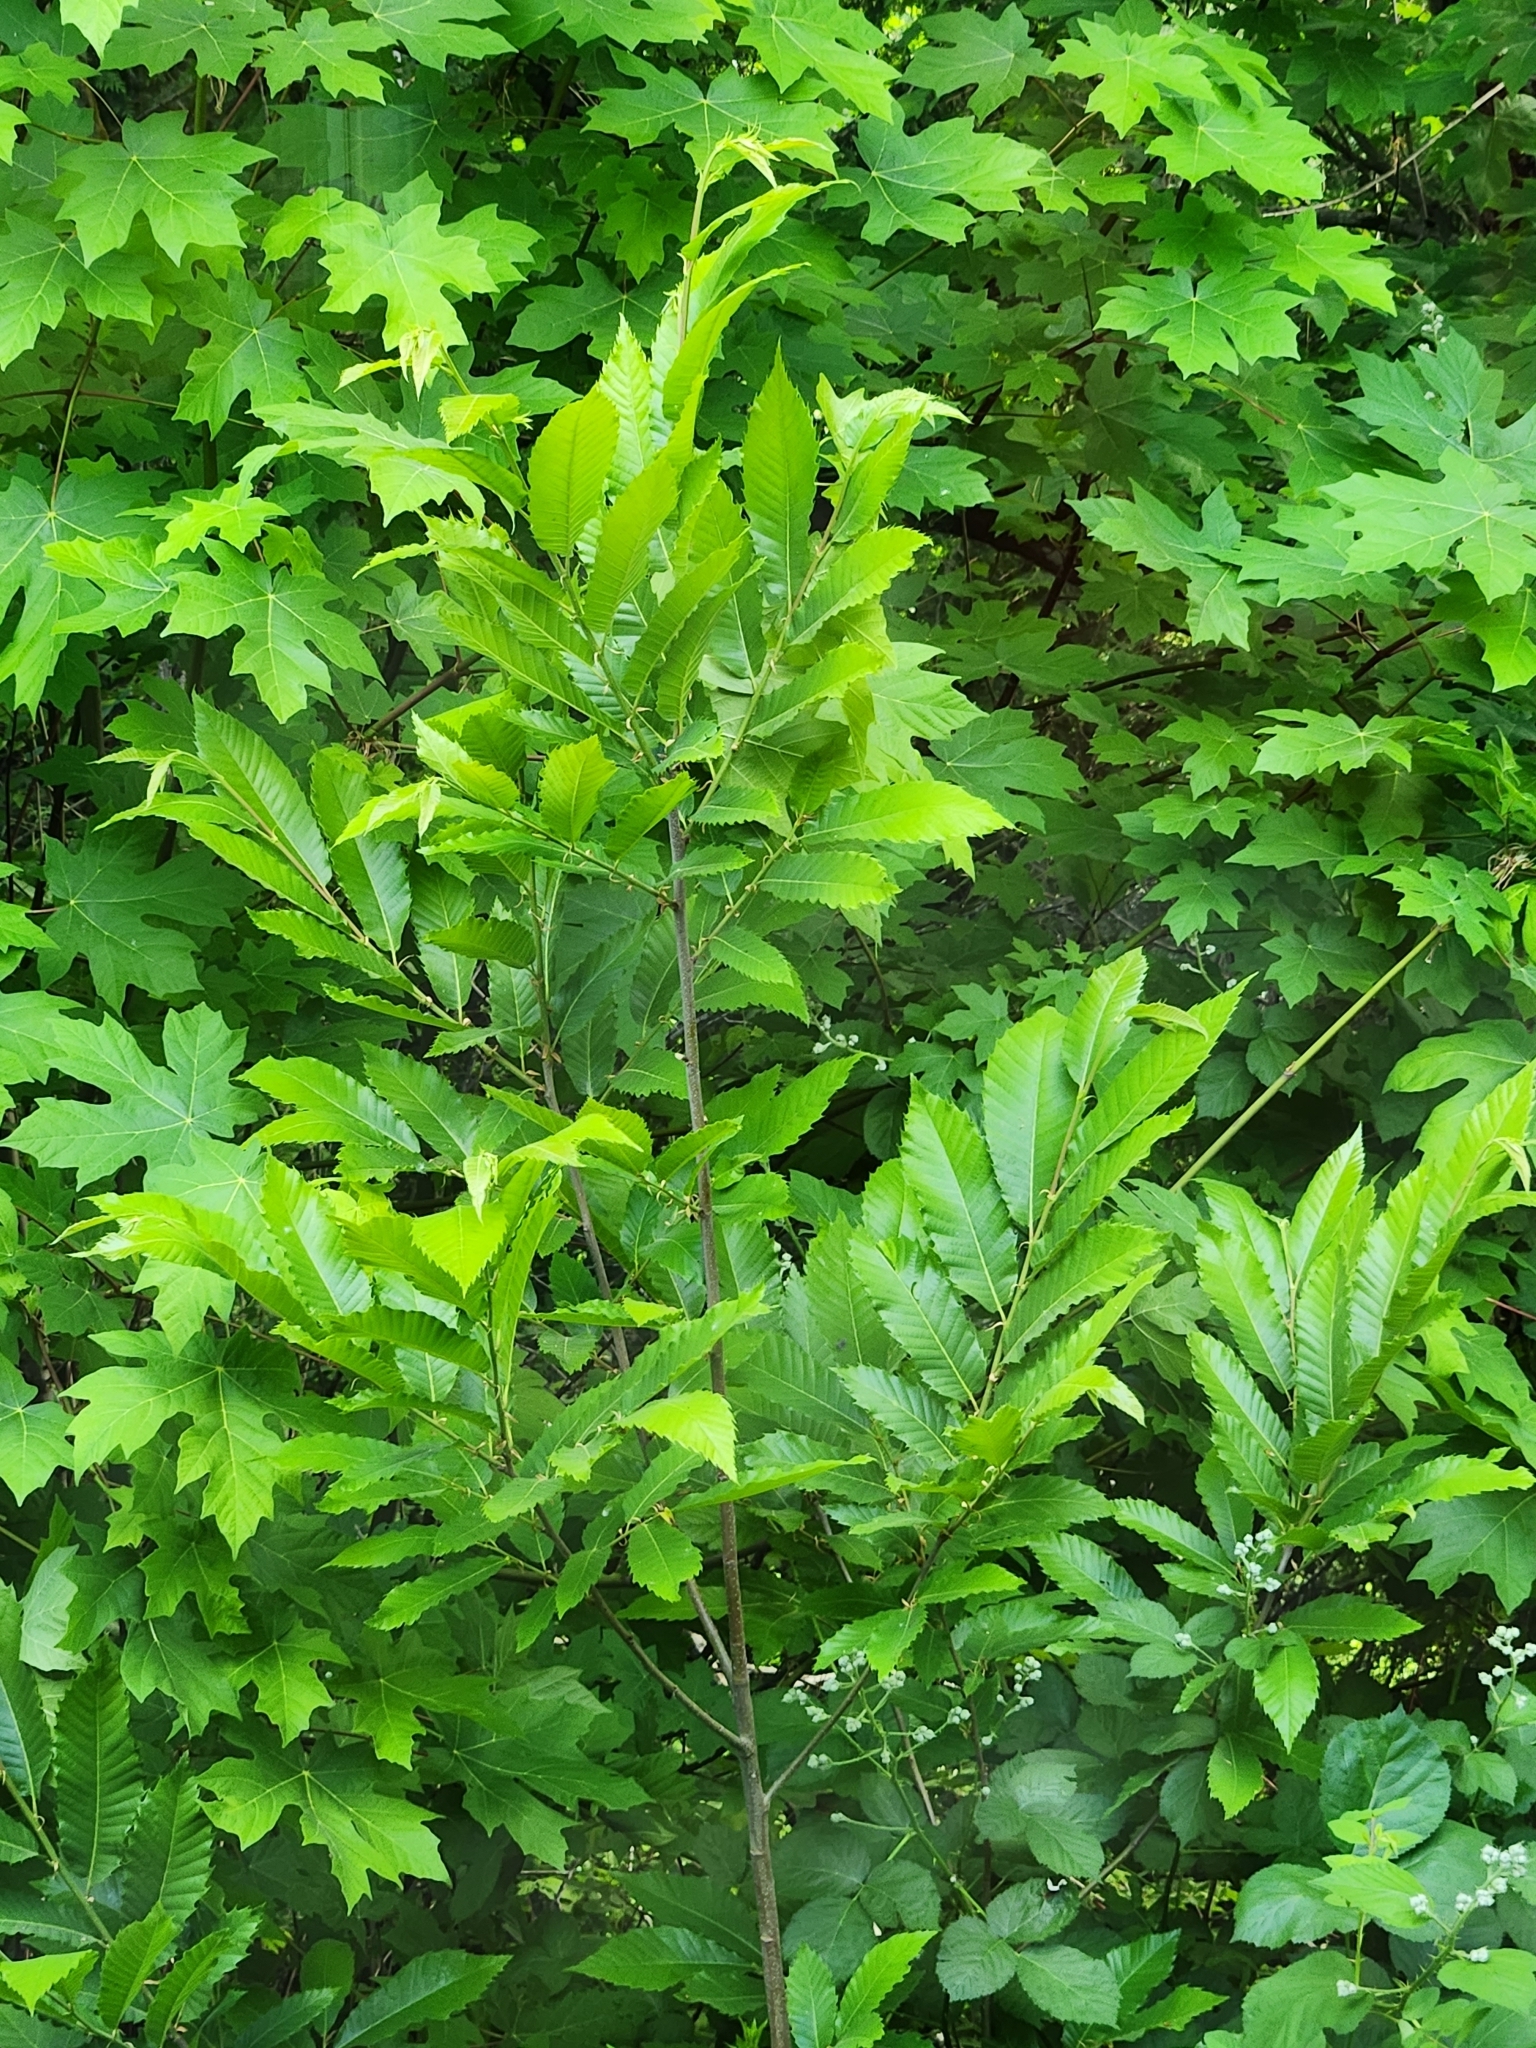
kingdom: Plantae
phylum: Tracheophyta
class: Magnoliopsida
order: Fagales
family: Fagaceae
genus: Castanea
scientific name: Castanea sativa
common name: Sweet chestnut
